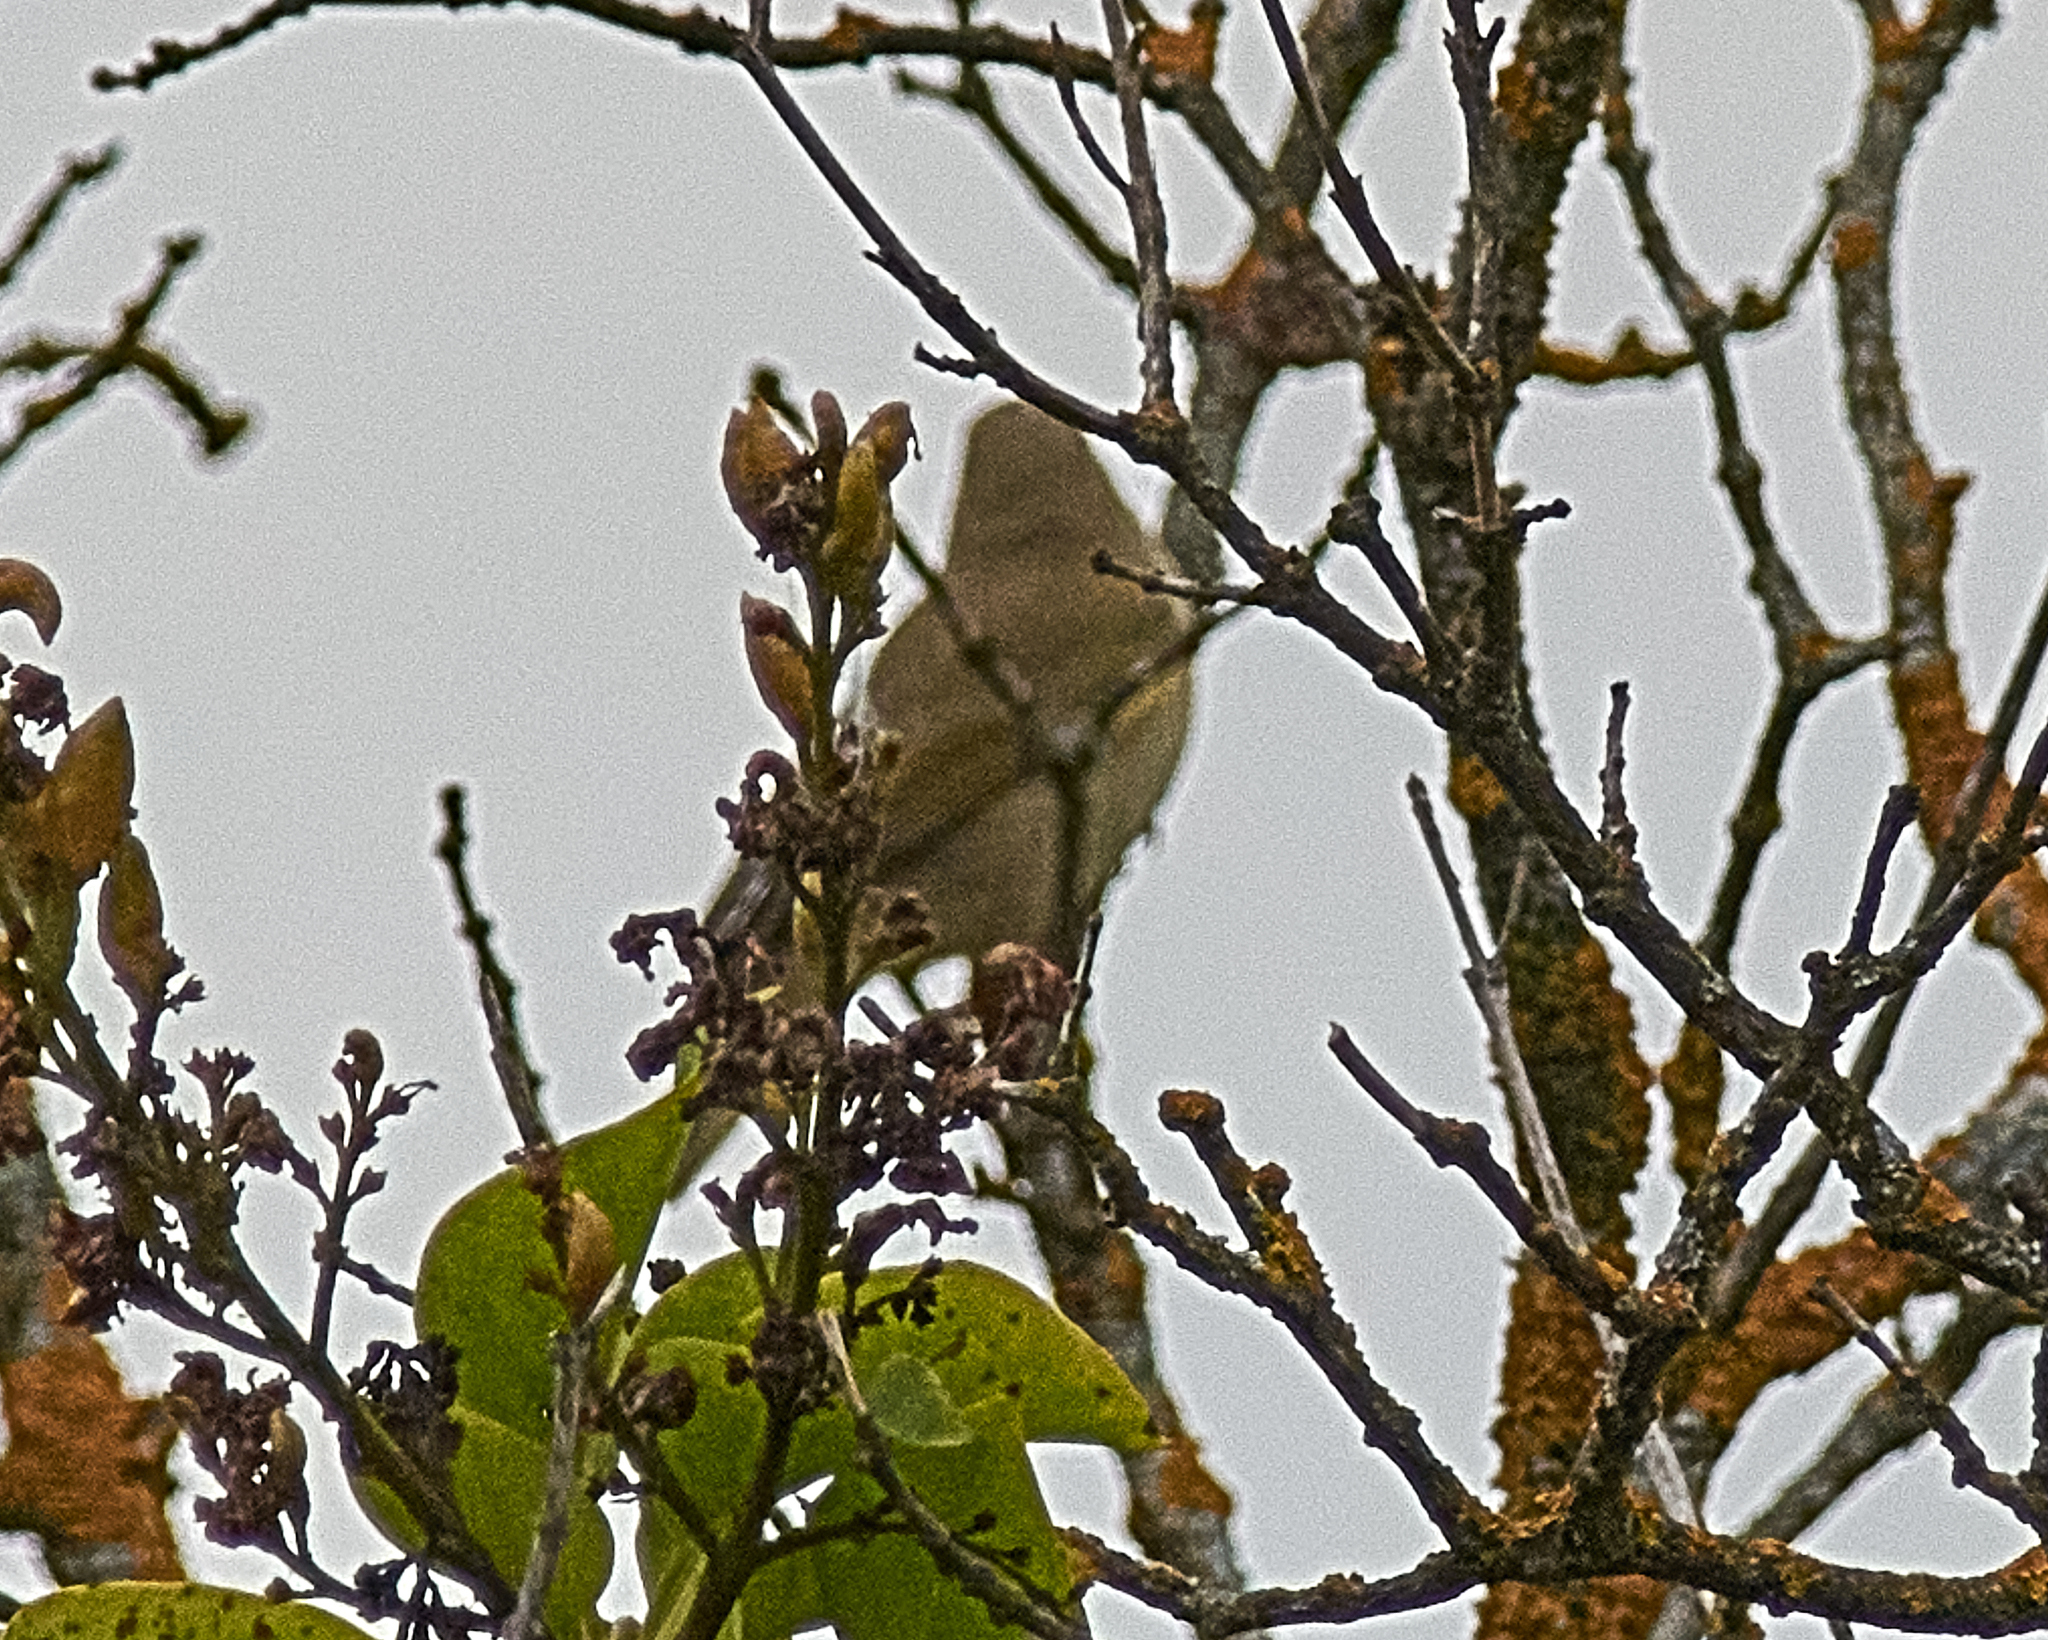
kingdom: Animalia
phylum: Chordata
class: Aves
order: Passeriformes
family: Phylloscopidae
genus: Phylloscopus
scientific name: Phylloscopus collybita
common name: Common chiffchaff
